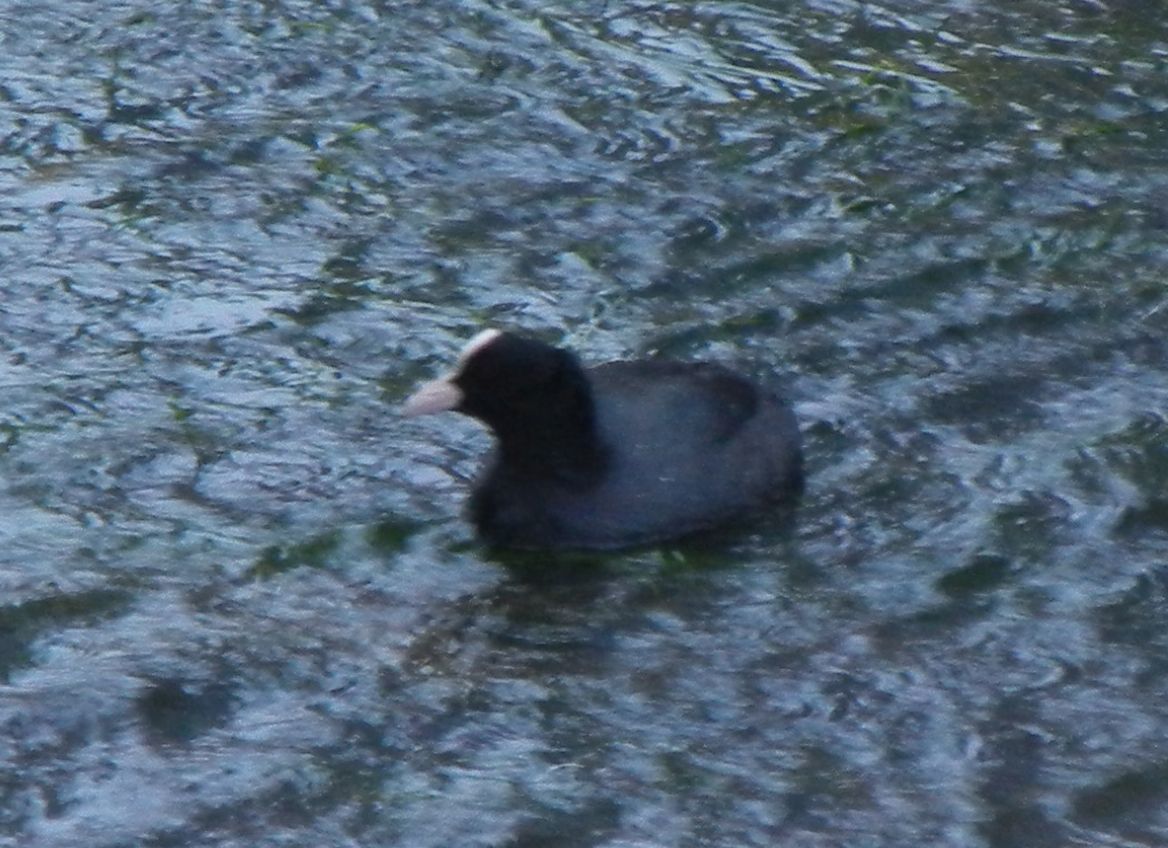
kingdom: Animalia
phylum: Chordata
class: Aves
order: Gruiformes
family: Rallidae
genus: Fulica
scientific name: Fulica atra
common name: Eurasian coot
